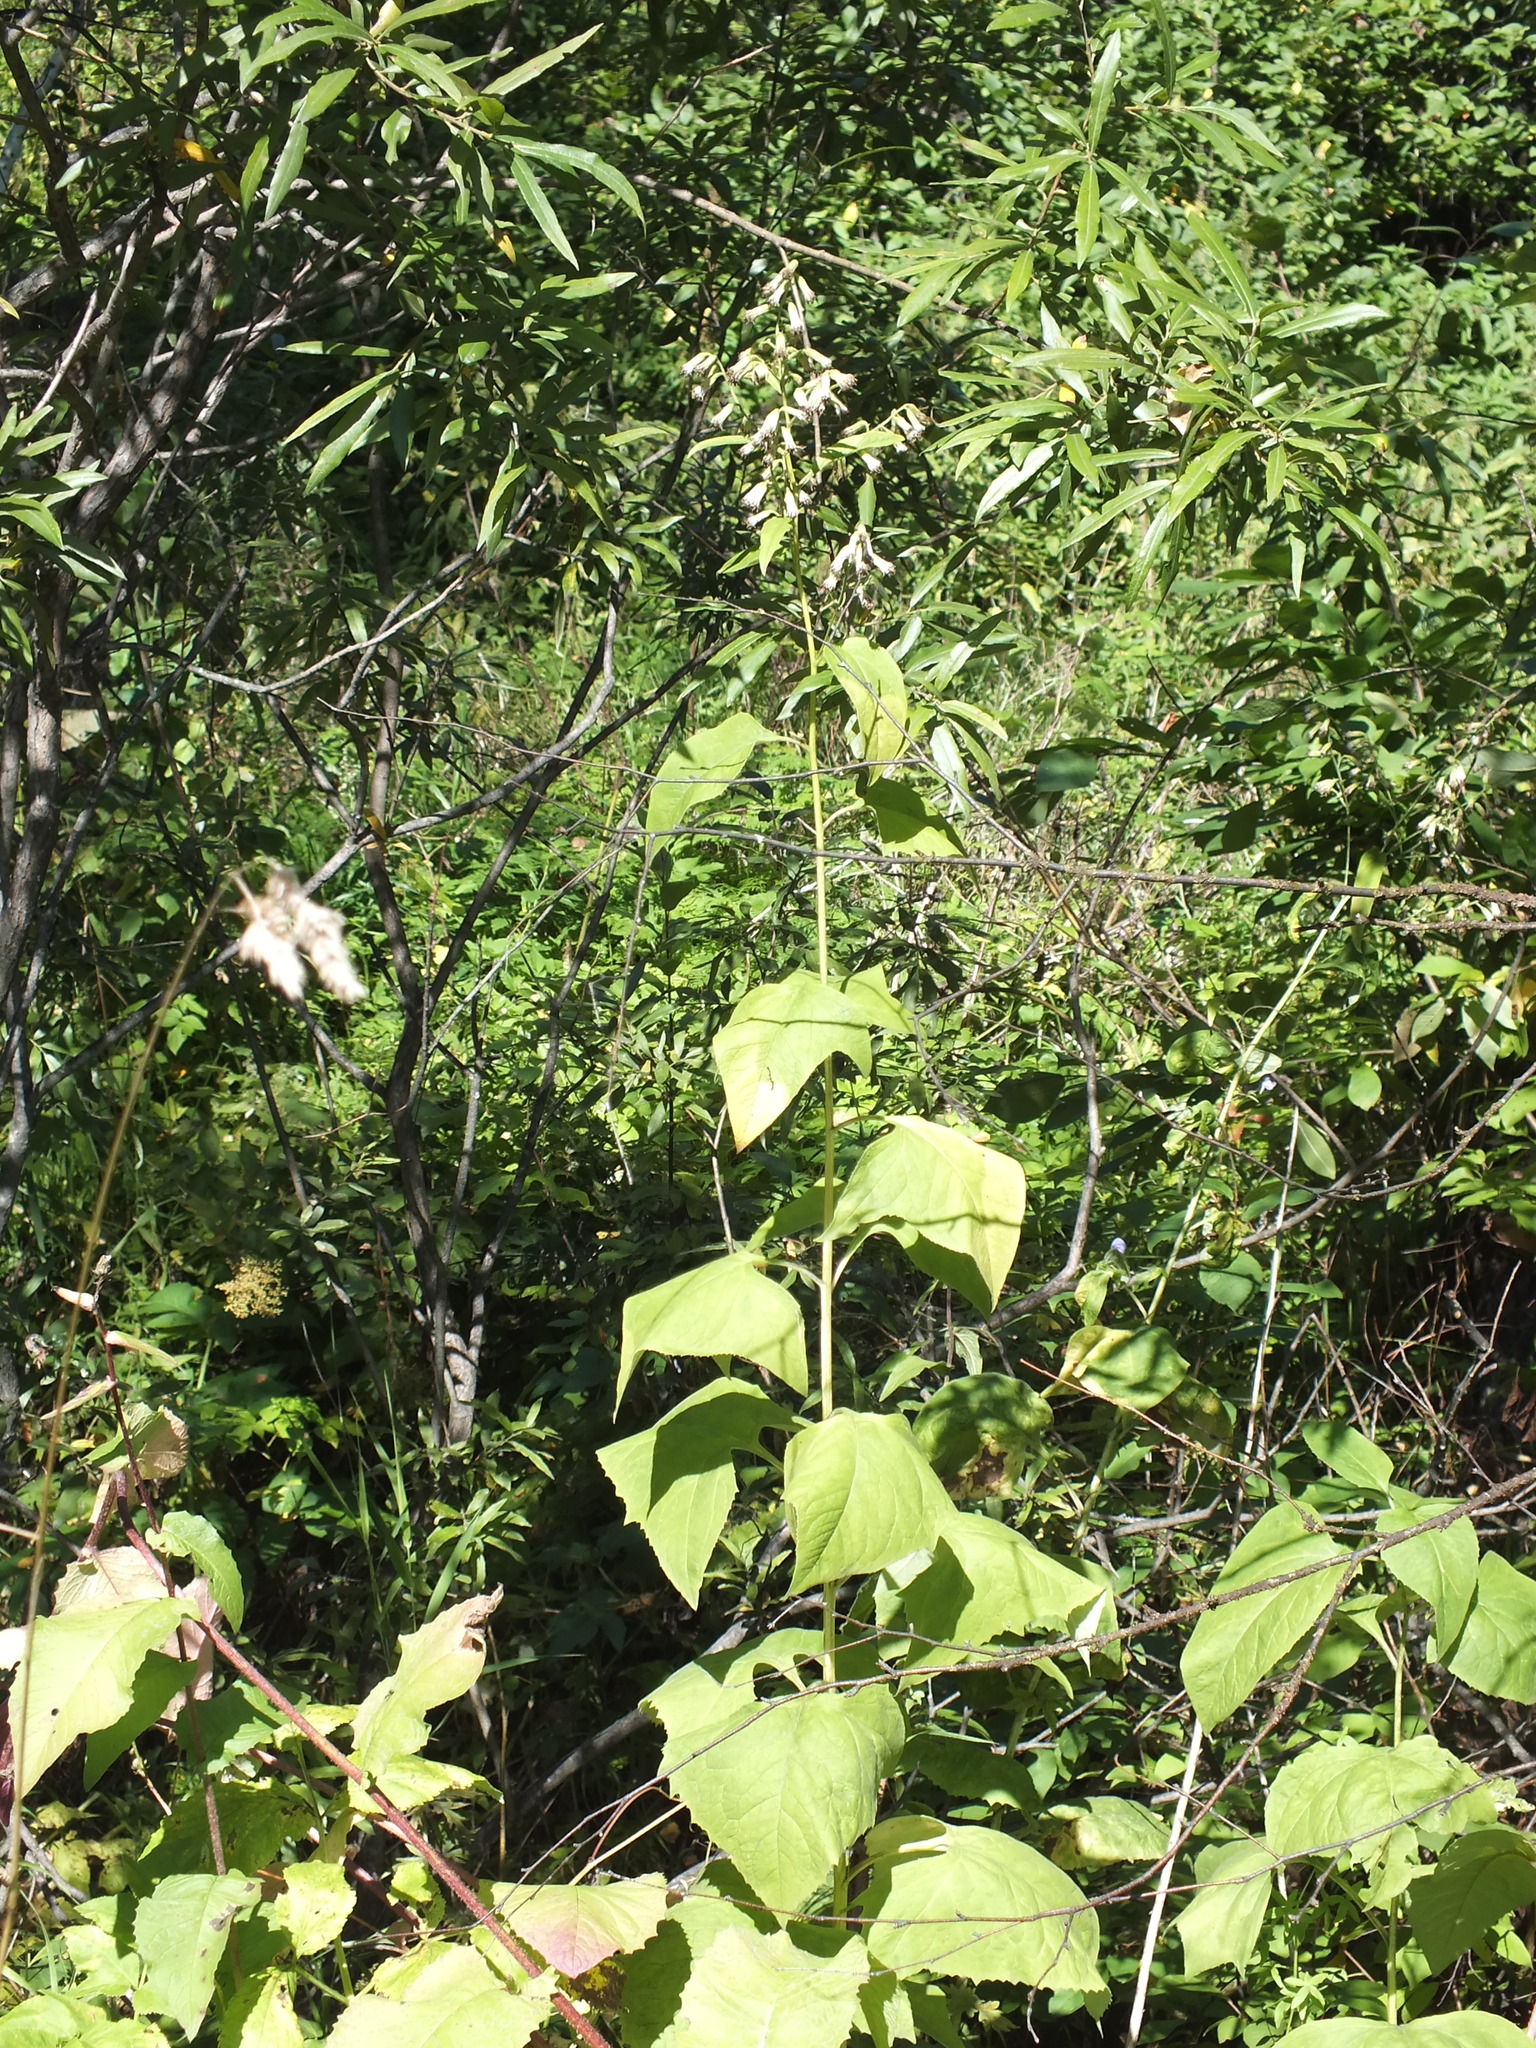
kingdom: Plantae
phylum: Tracheophyta
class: Magnoliopsida
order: Asterales
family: Asteraceae
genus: Parasenecio
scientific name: Parasenecio hastatus
